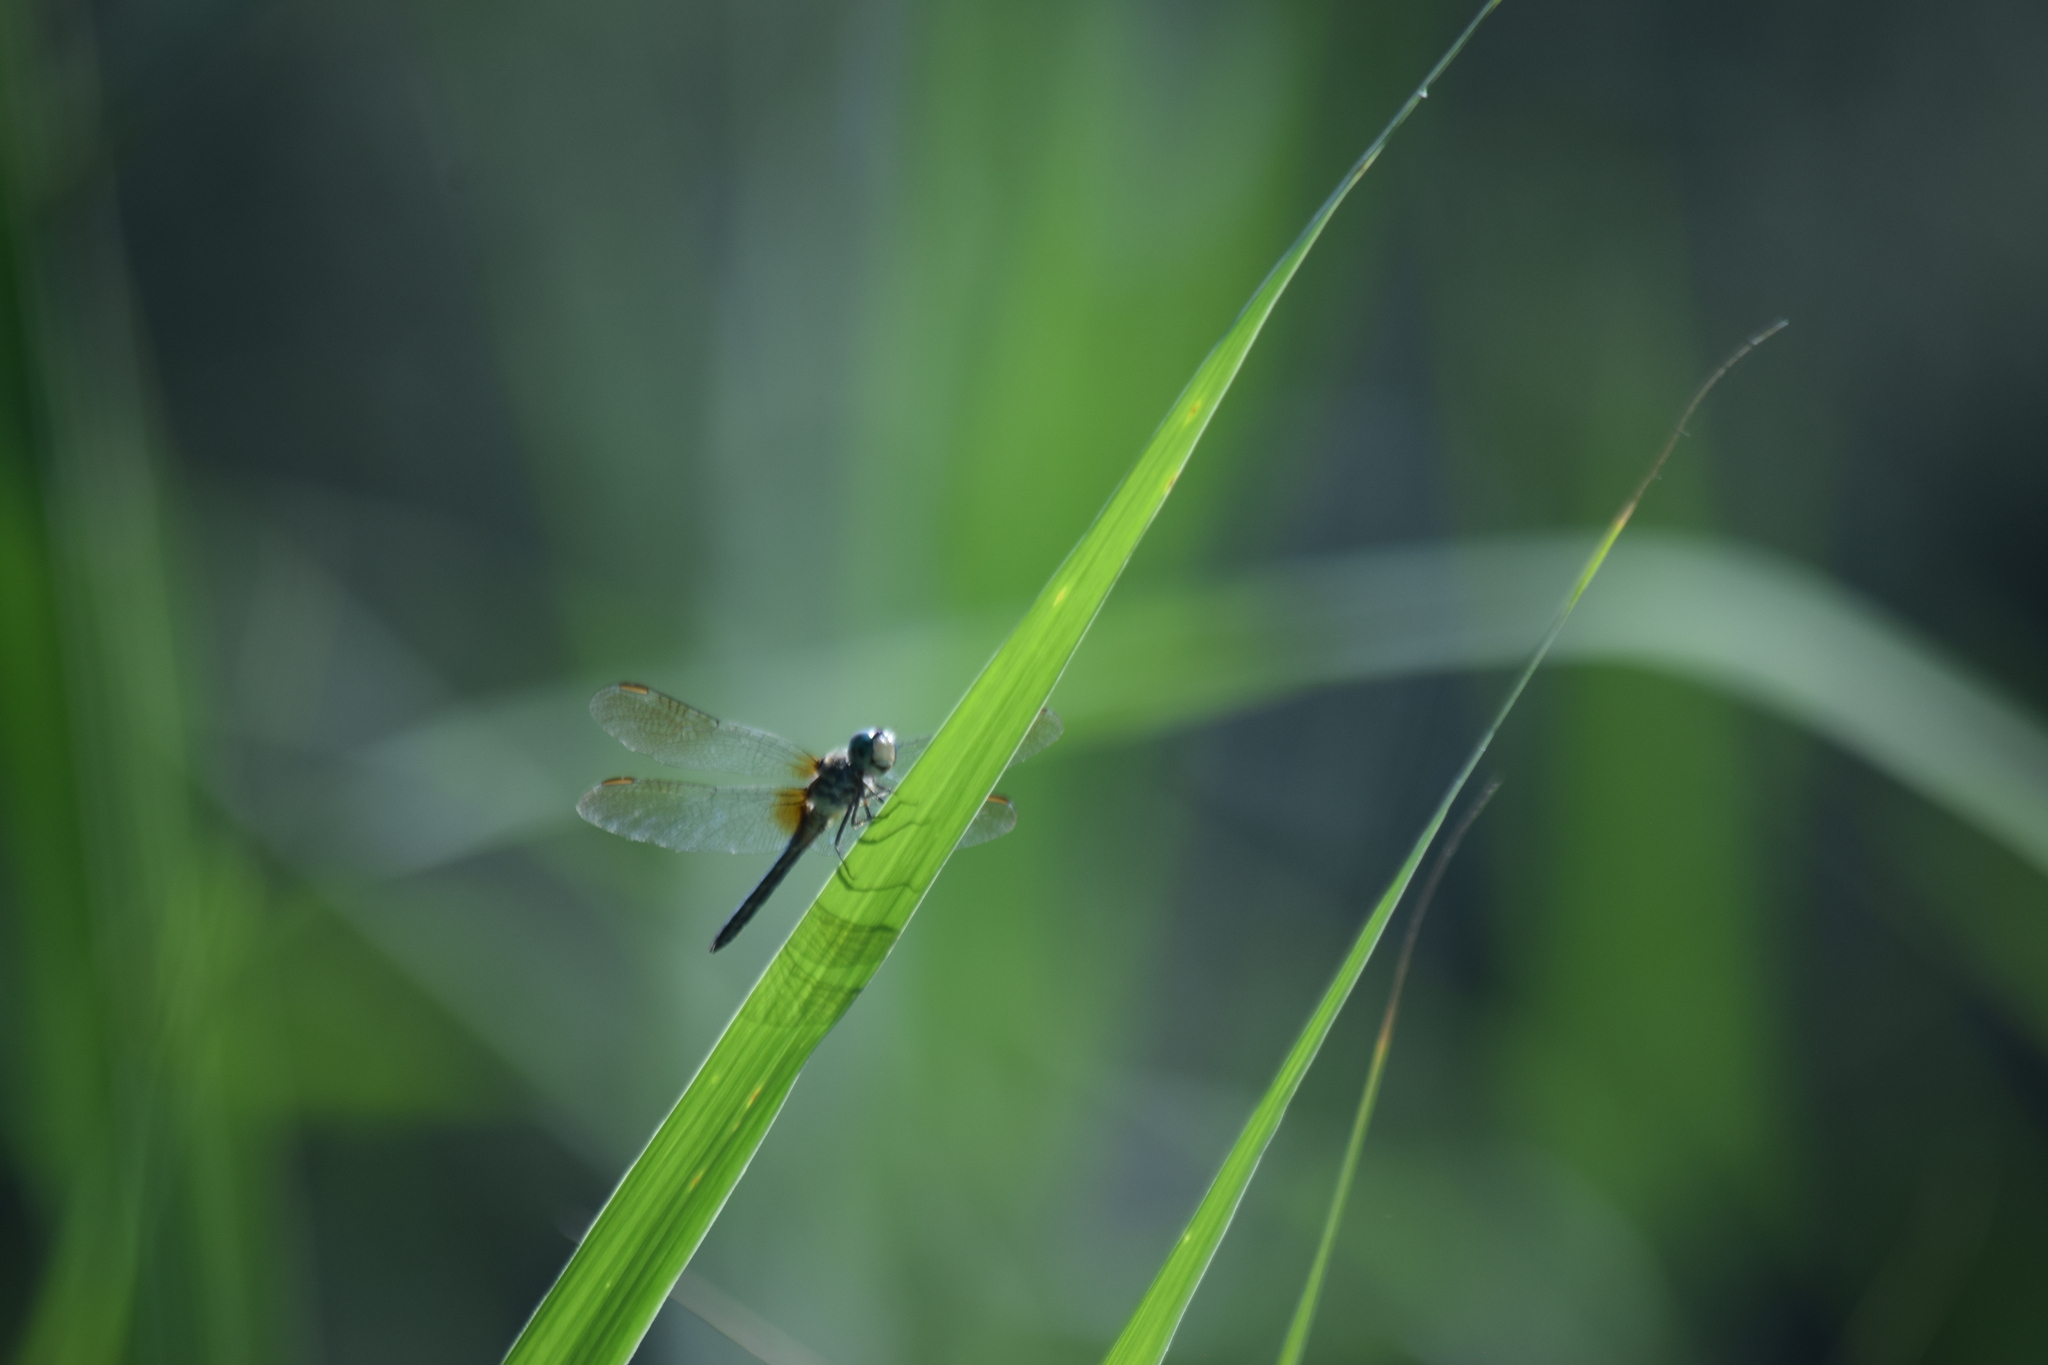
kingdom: Animalia
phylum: Arthropoda
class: Insecta
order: Odonata
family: Libellulidae
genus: Pachydiplax
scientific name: Pachydiplax longipennis
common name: Blue dasher
